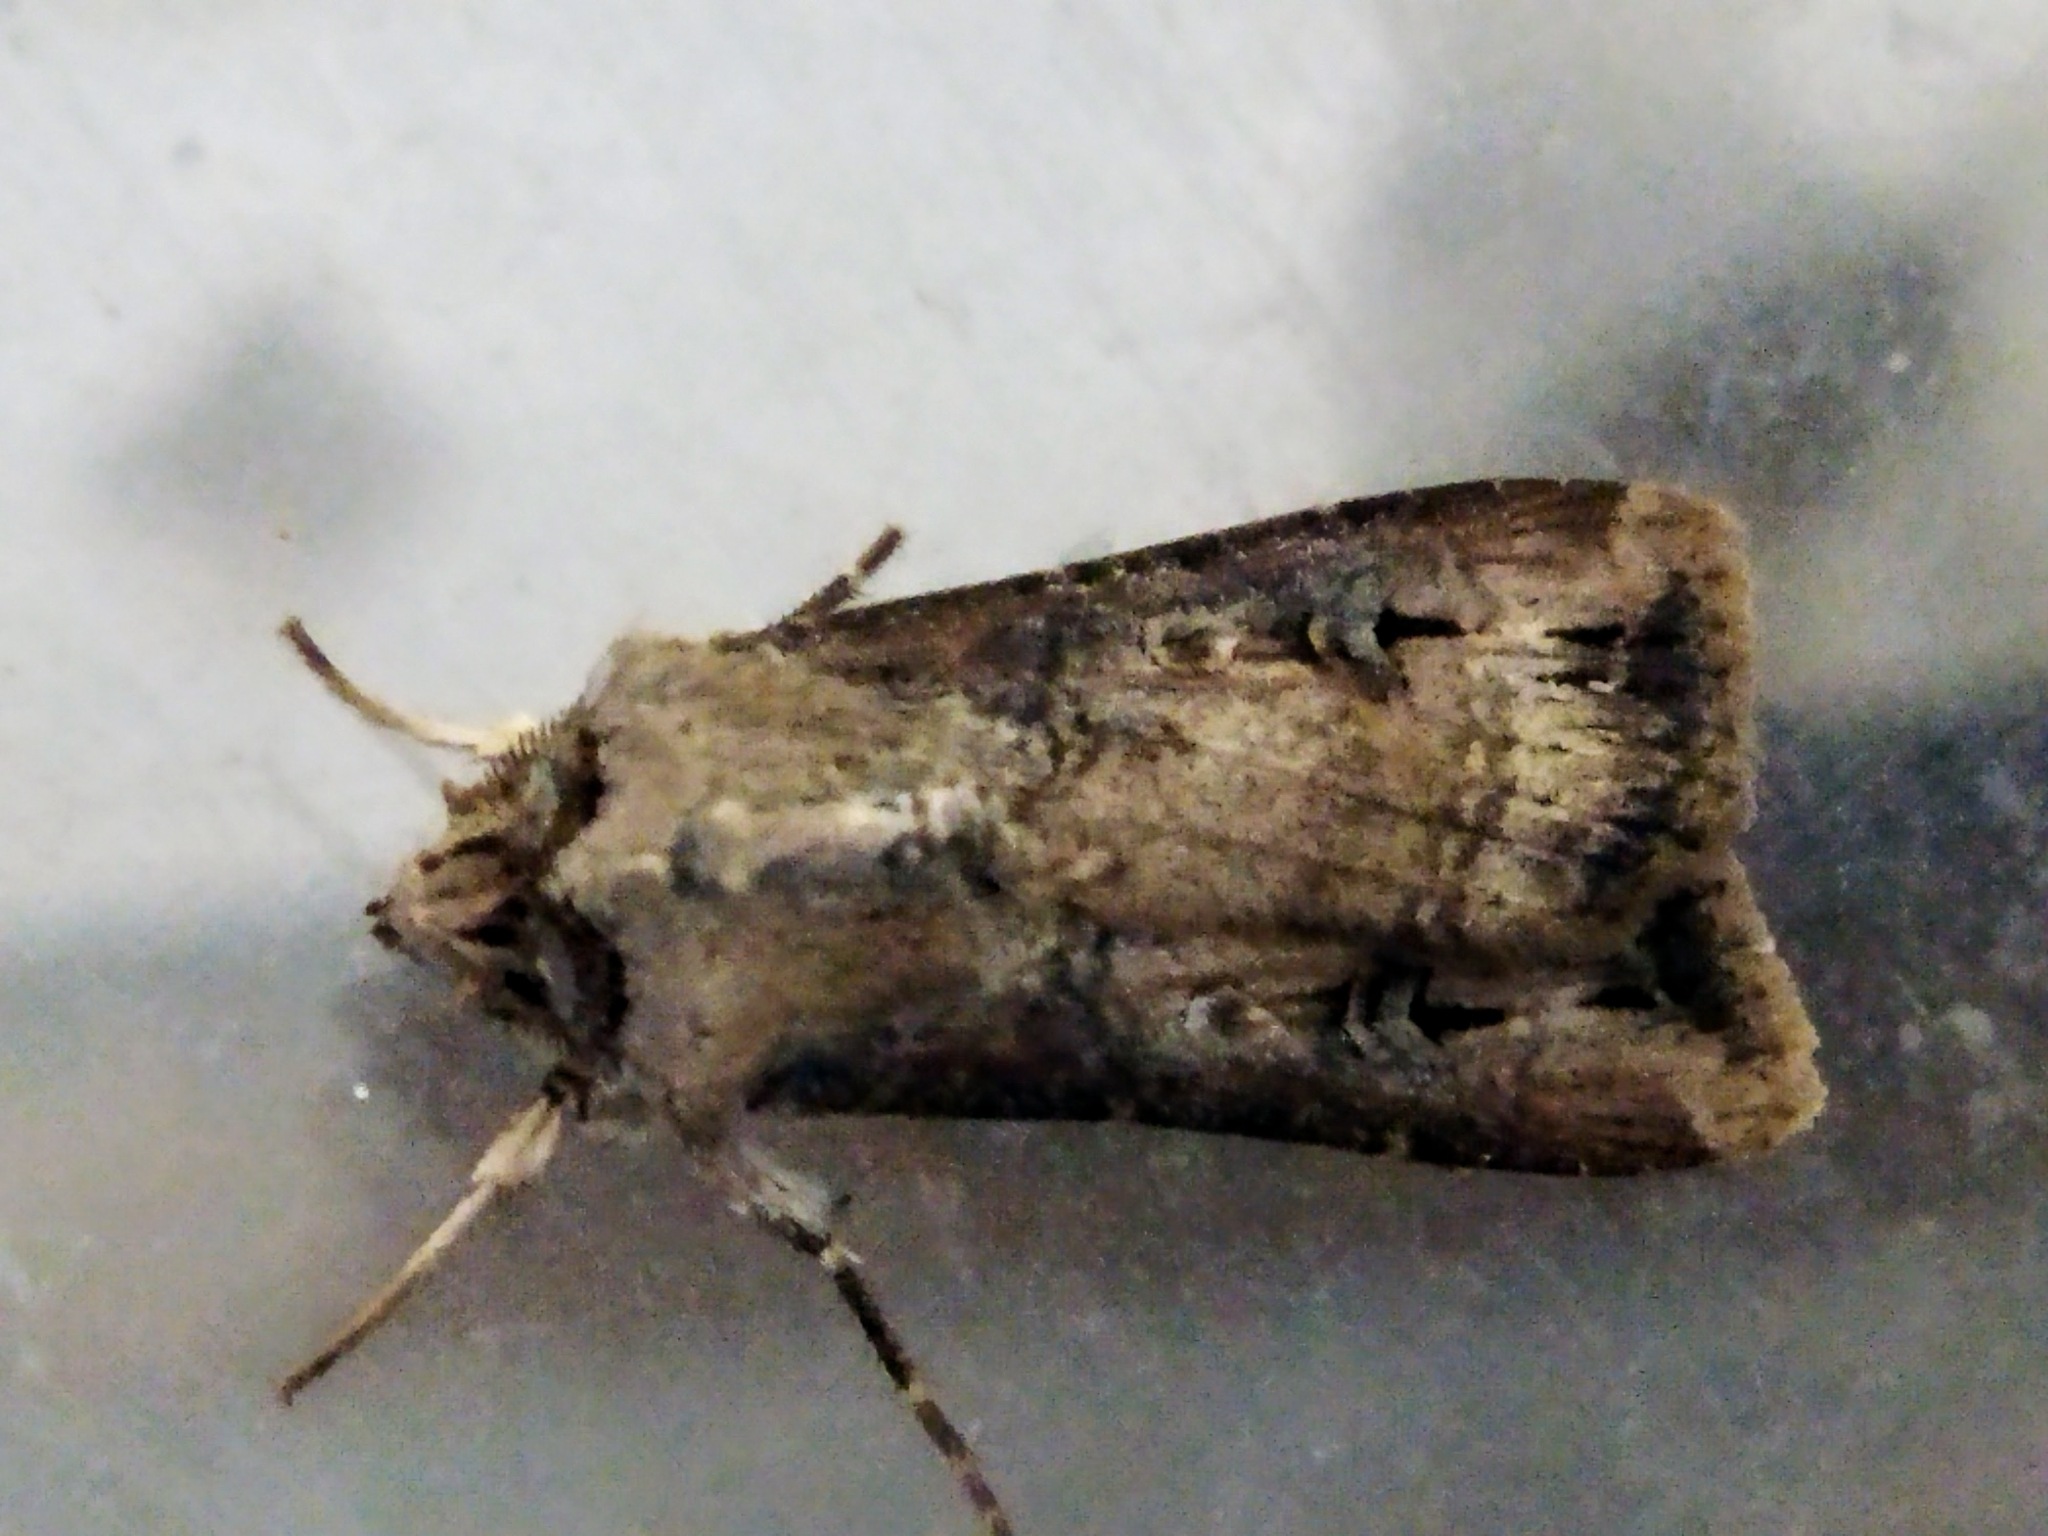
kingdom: Animalia
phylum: Arthropoda
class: Insecta
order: Lepidoptera
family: Noctuidae
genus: Agrotis
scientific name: Agrotis ipsilon
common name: Dark sword-grass
